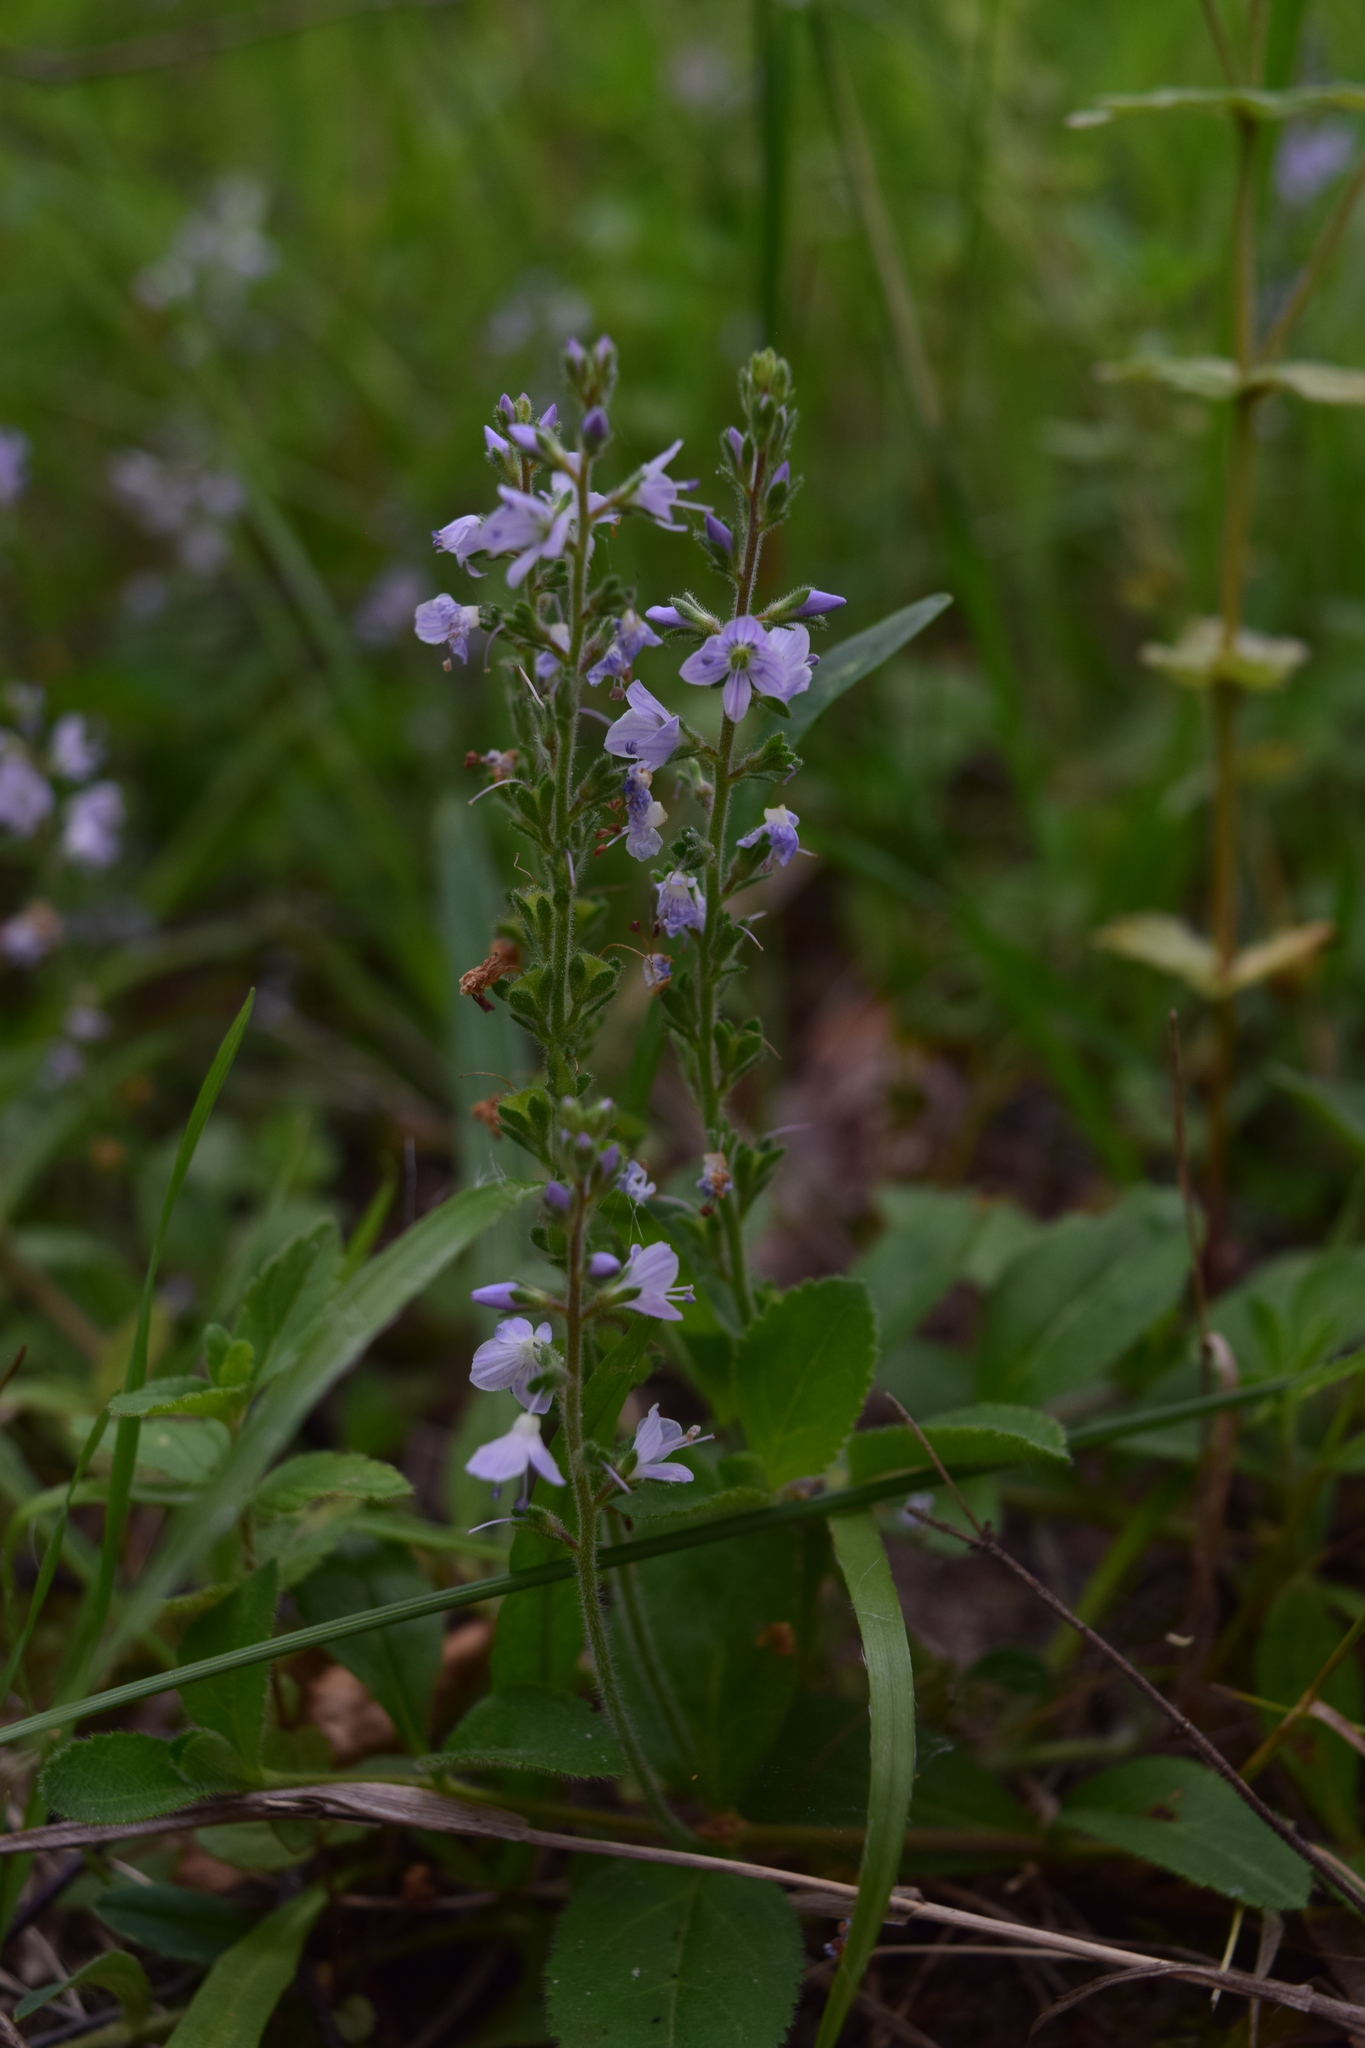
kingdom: Plantae
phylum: Tracheophyta
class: Magnoliopsida
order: Lamiales
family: Plantaginaceae
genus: Veronica
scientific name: Veronica officinalis
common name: Common speedwell
